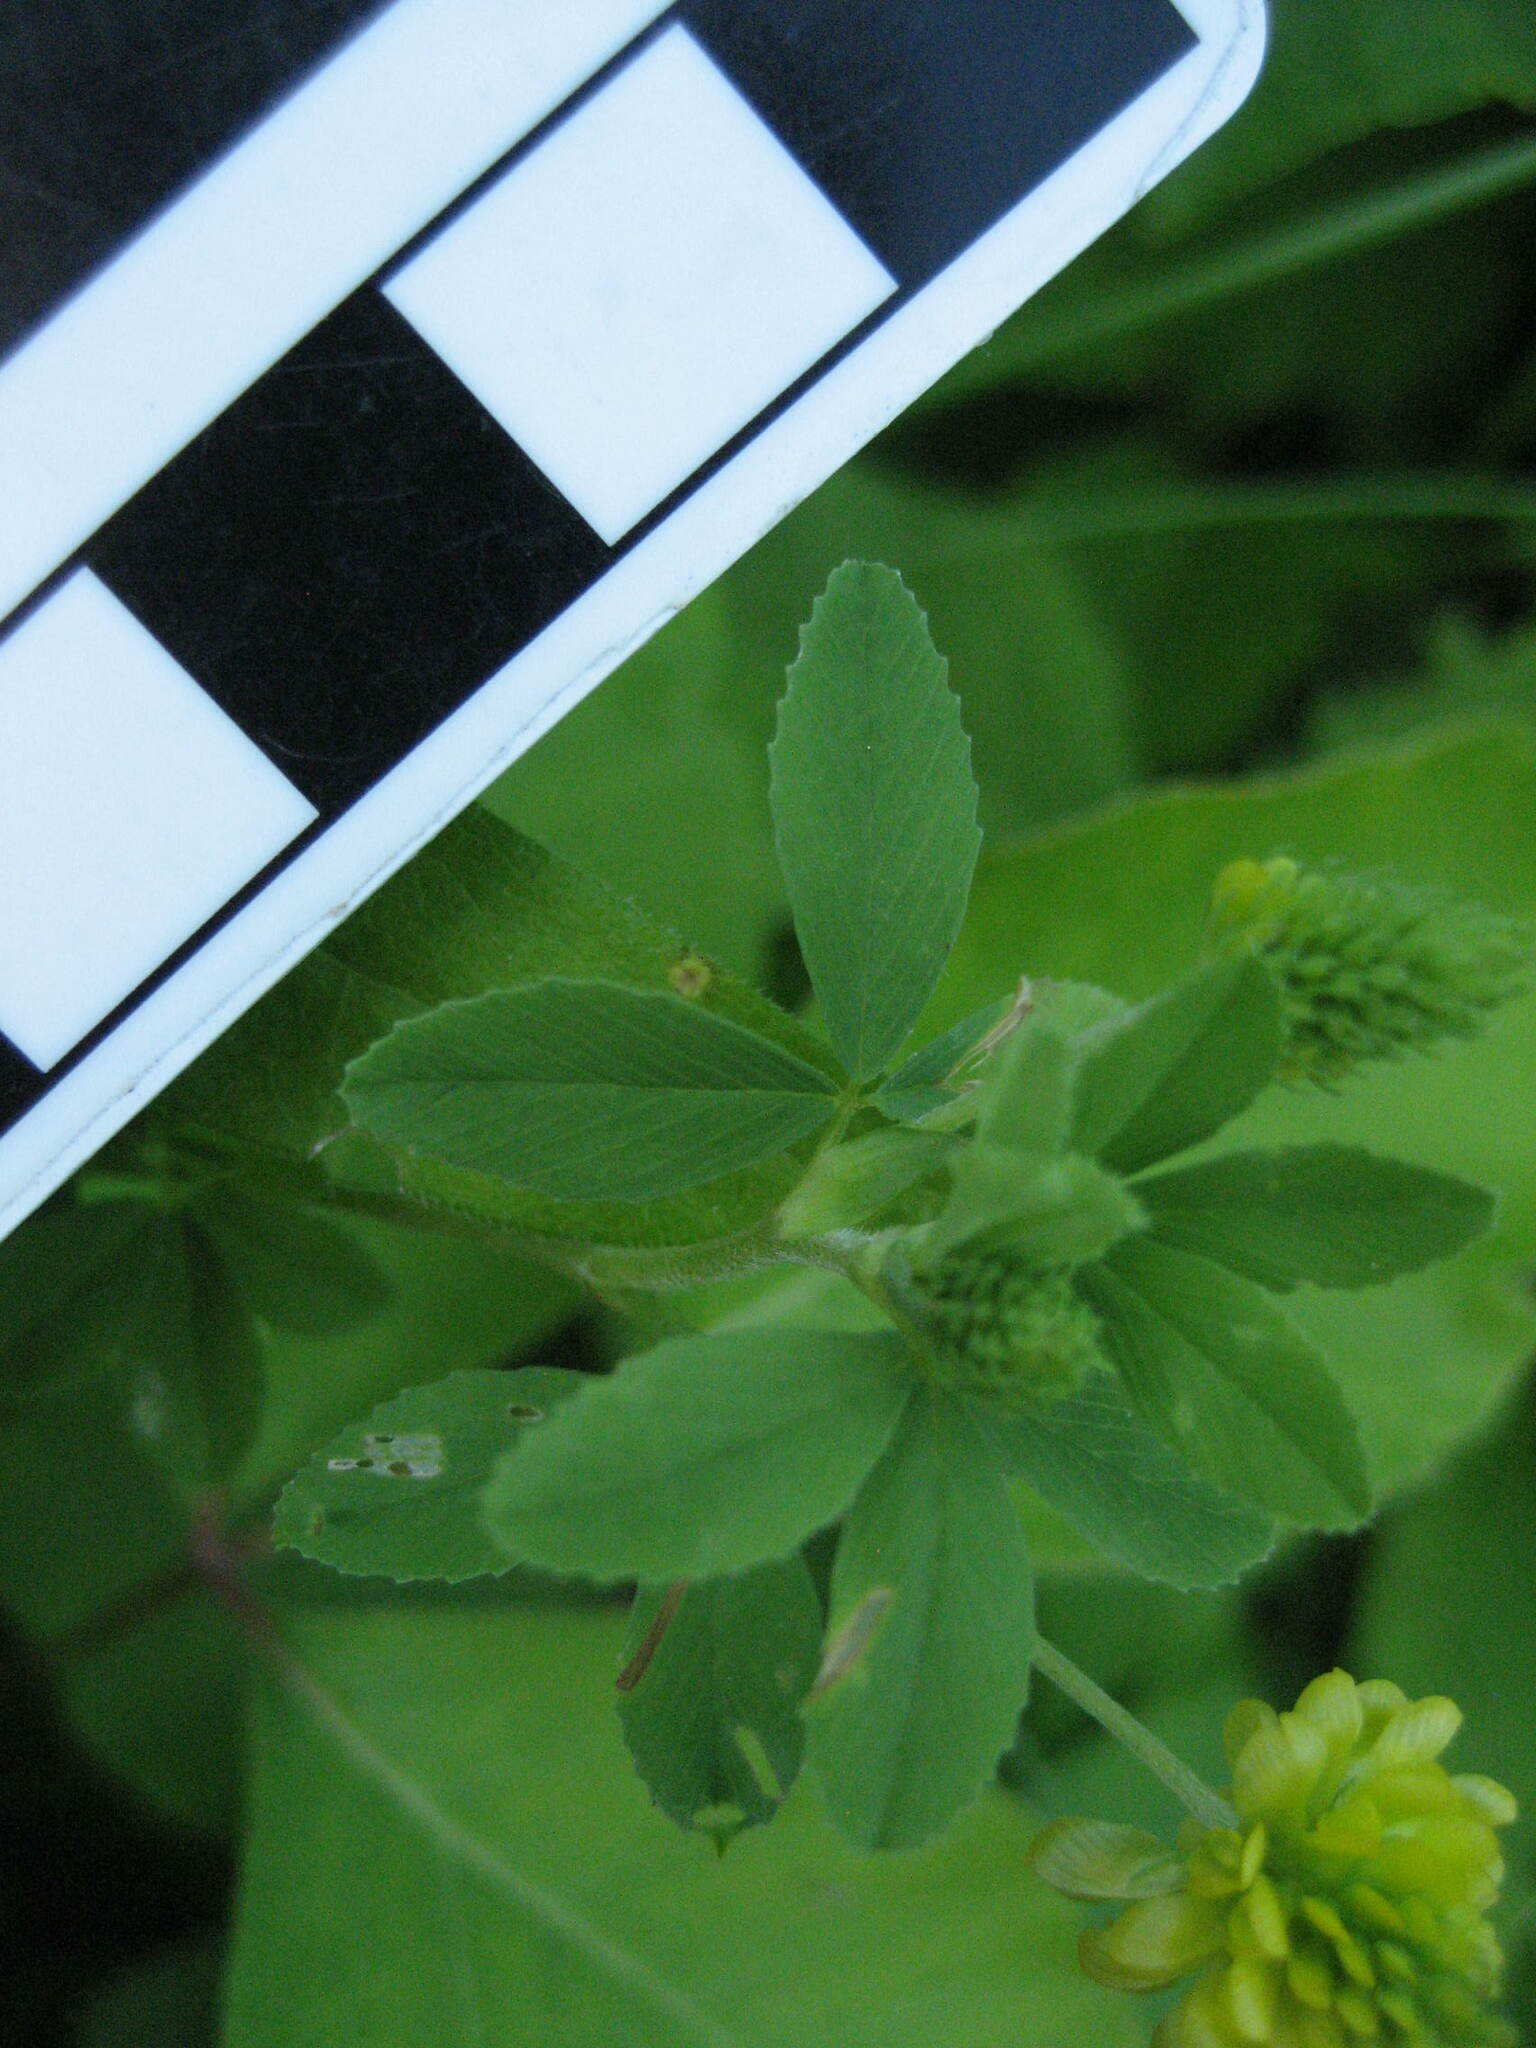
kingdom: Plantae
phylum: Tracheophyta
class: Magnoliopsida
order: Fabales
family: Fabaceae
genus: Trifolium
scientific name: Trifolium aureum
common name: Golden clover
